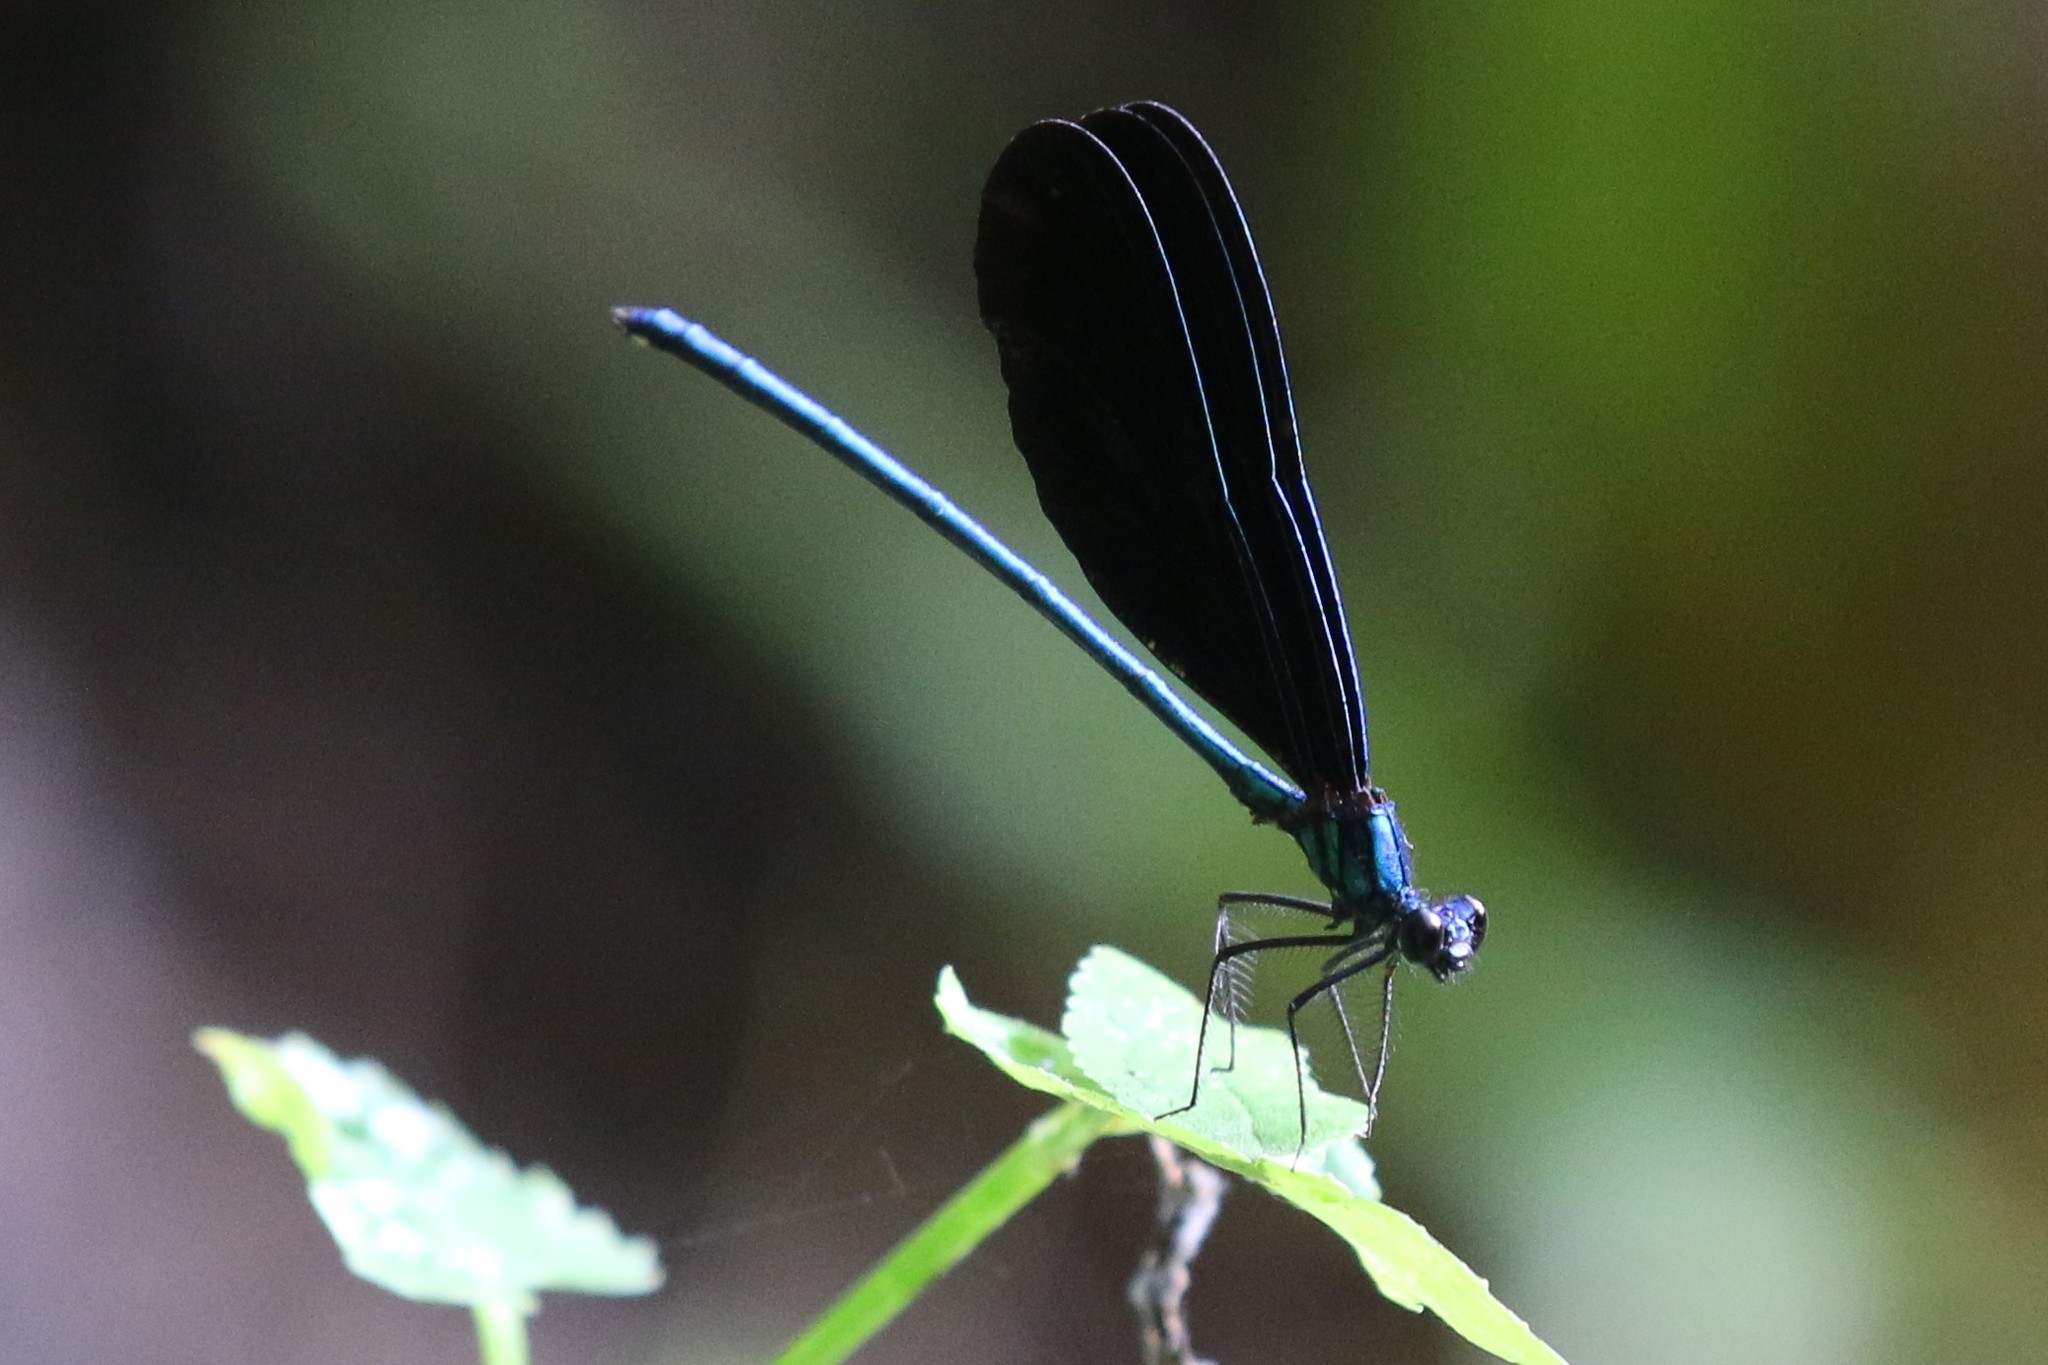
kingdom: Animalia
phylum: Arthropoda
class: Insecta
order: Odonata
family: Calopterygidae
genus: Calopteryx
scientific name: Calopteryx maculata
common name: Ebony jewelwing
